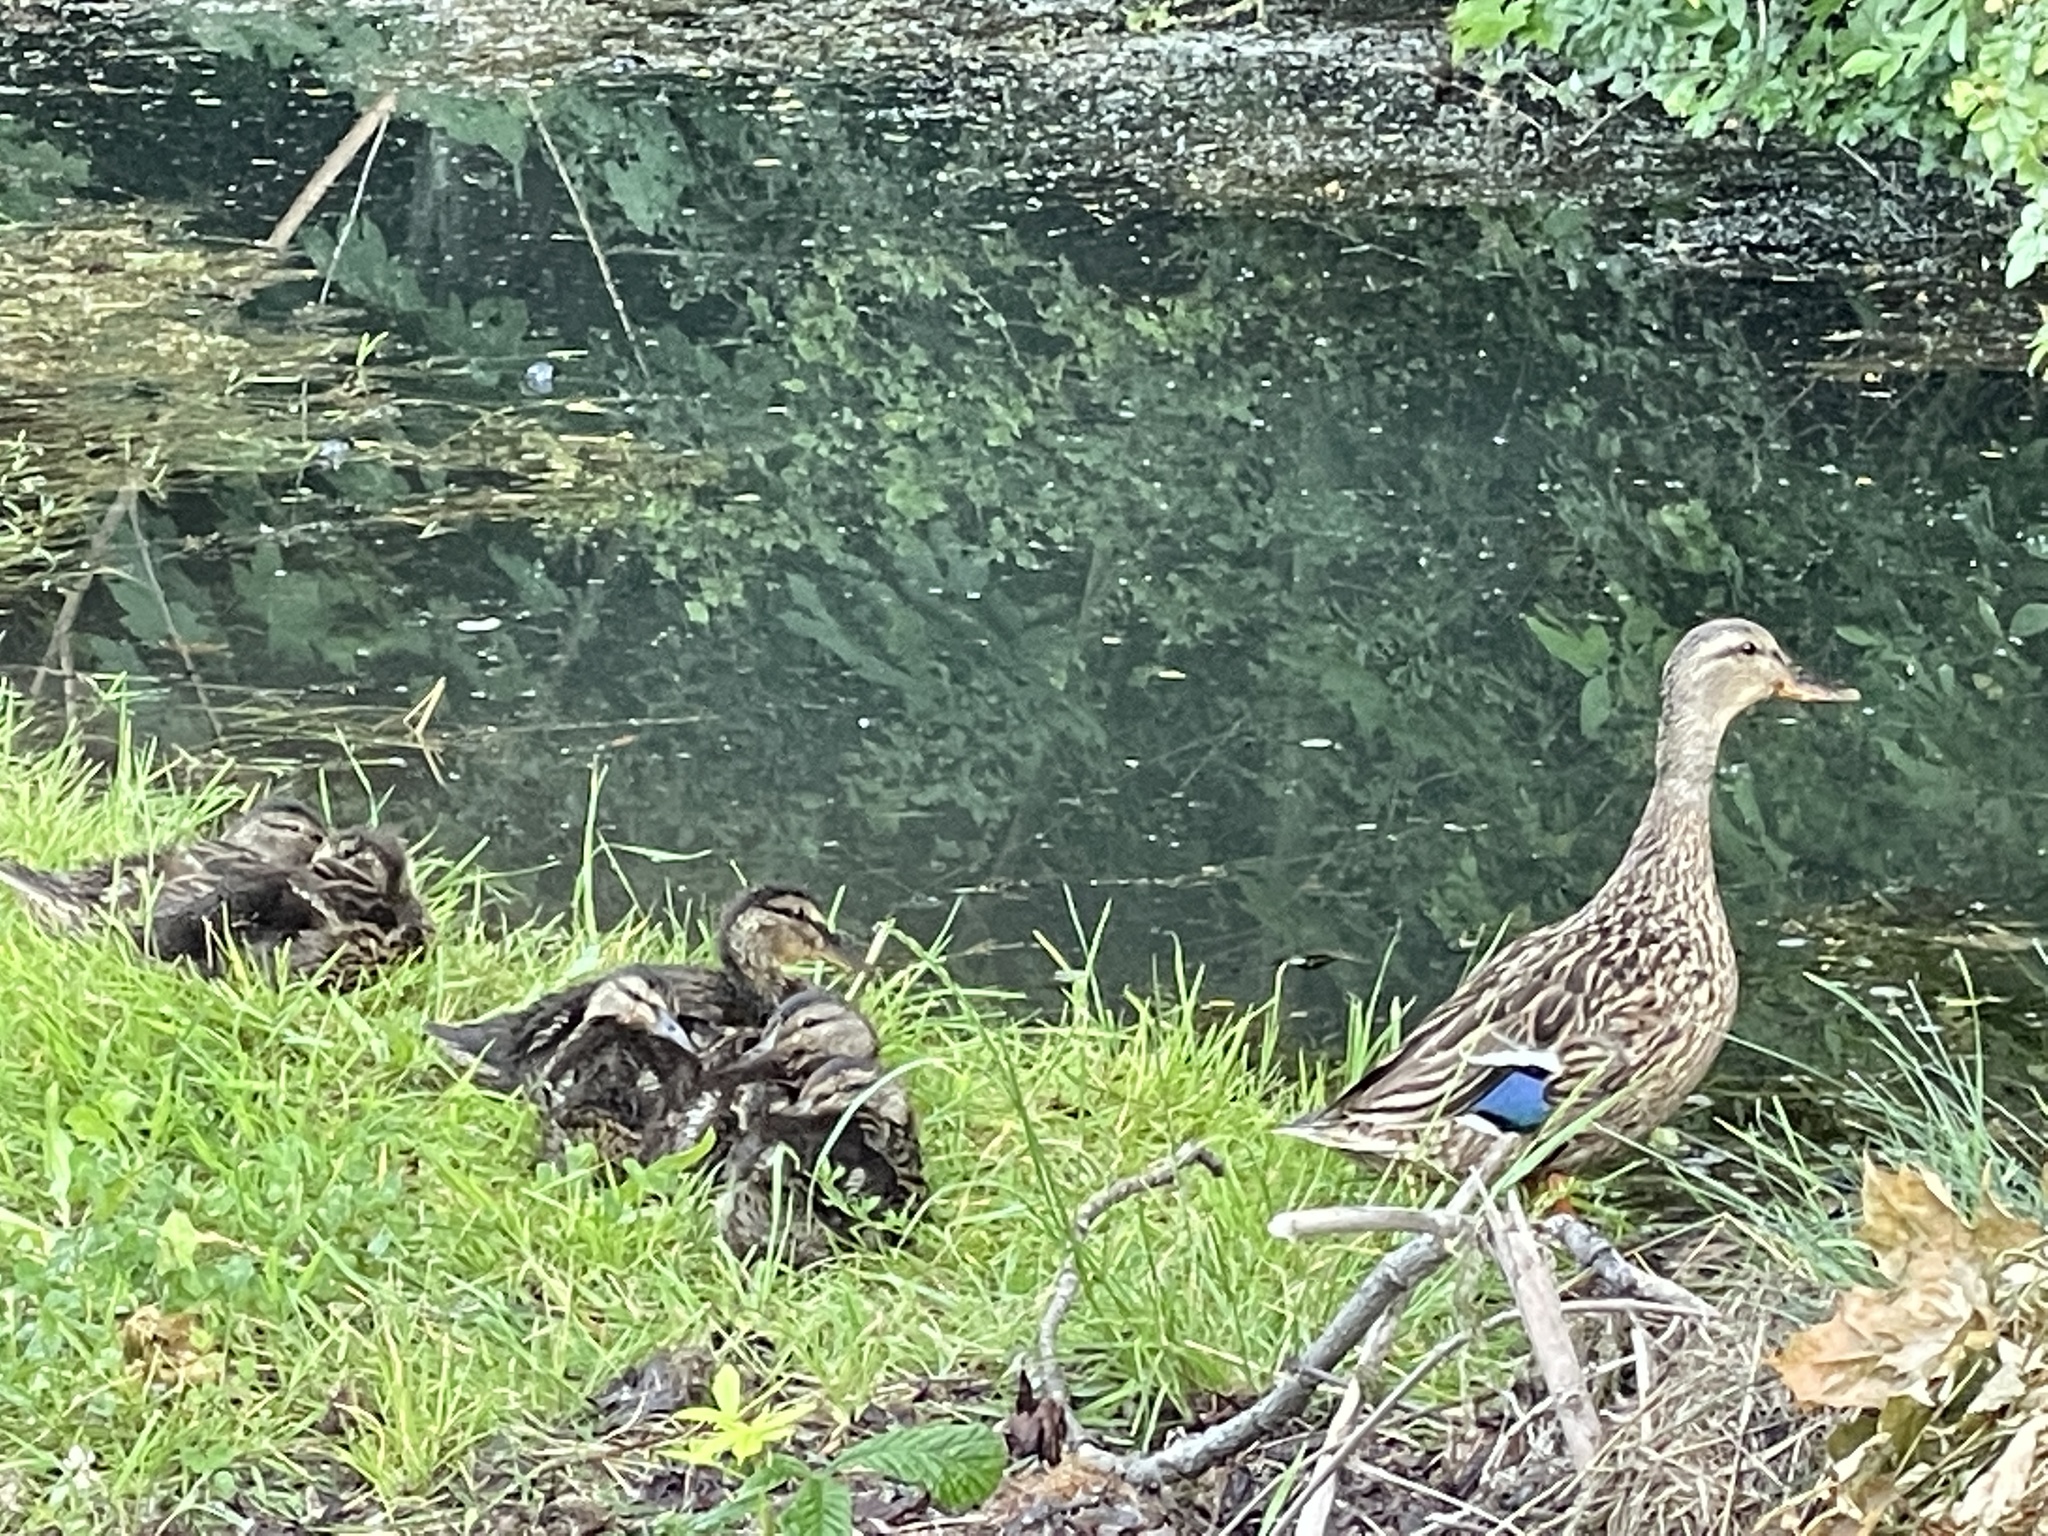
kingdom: Animalia
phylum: Chordata
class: Aves
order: Anseriformes
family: Anatidae
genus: Anas
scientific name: Anas platyrhynchos
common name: Mallard
